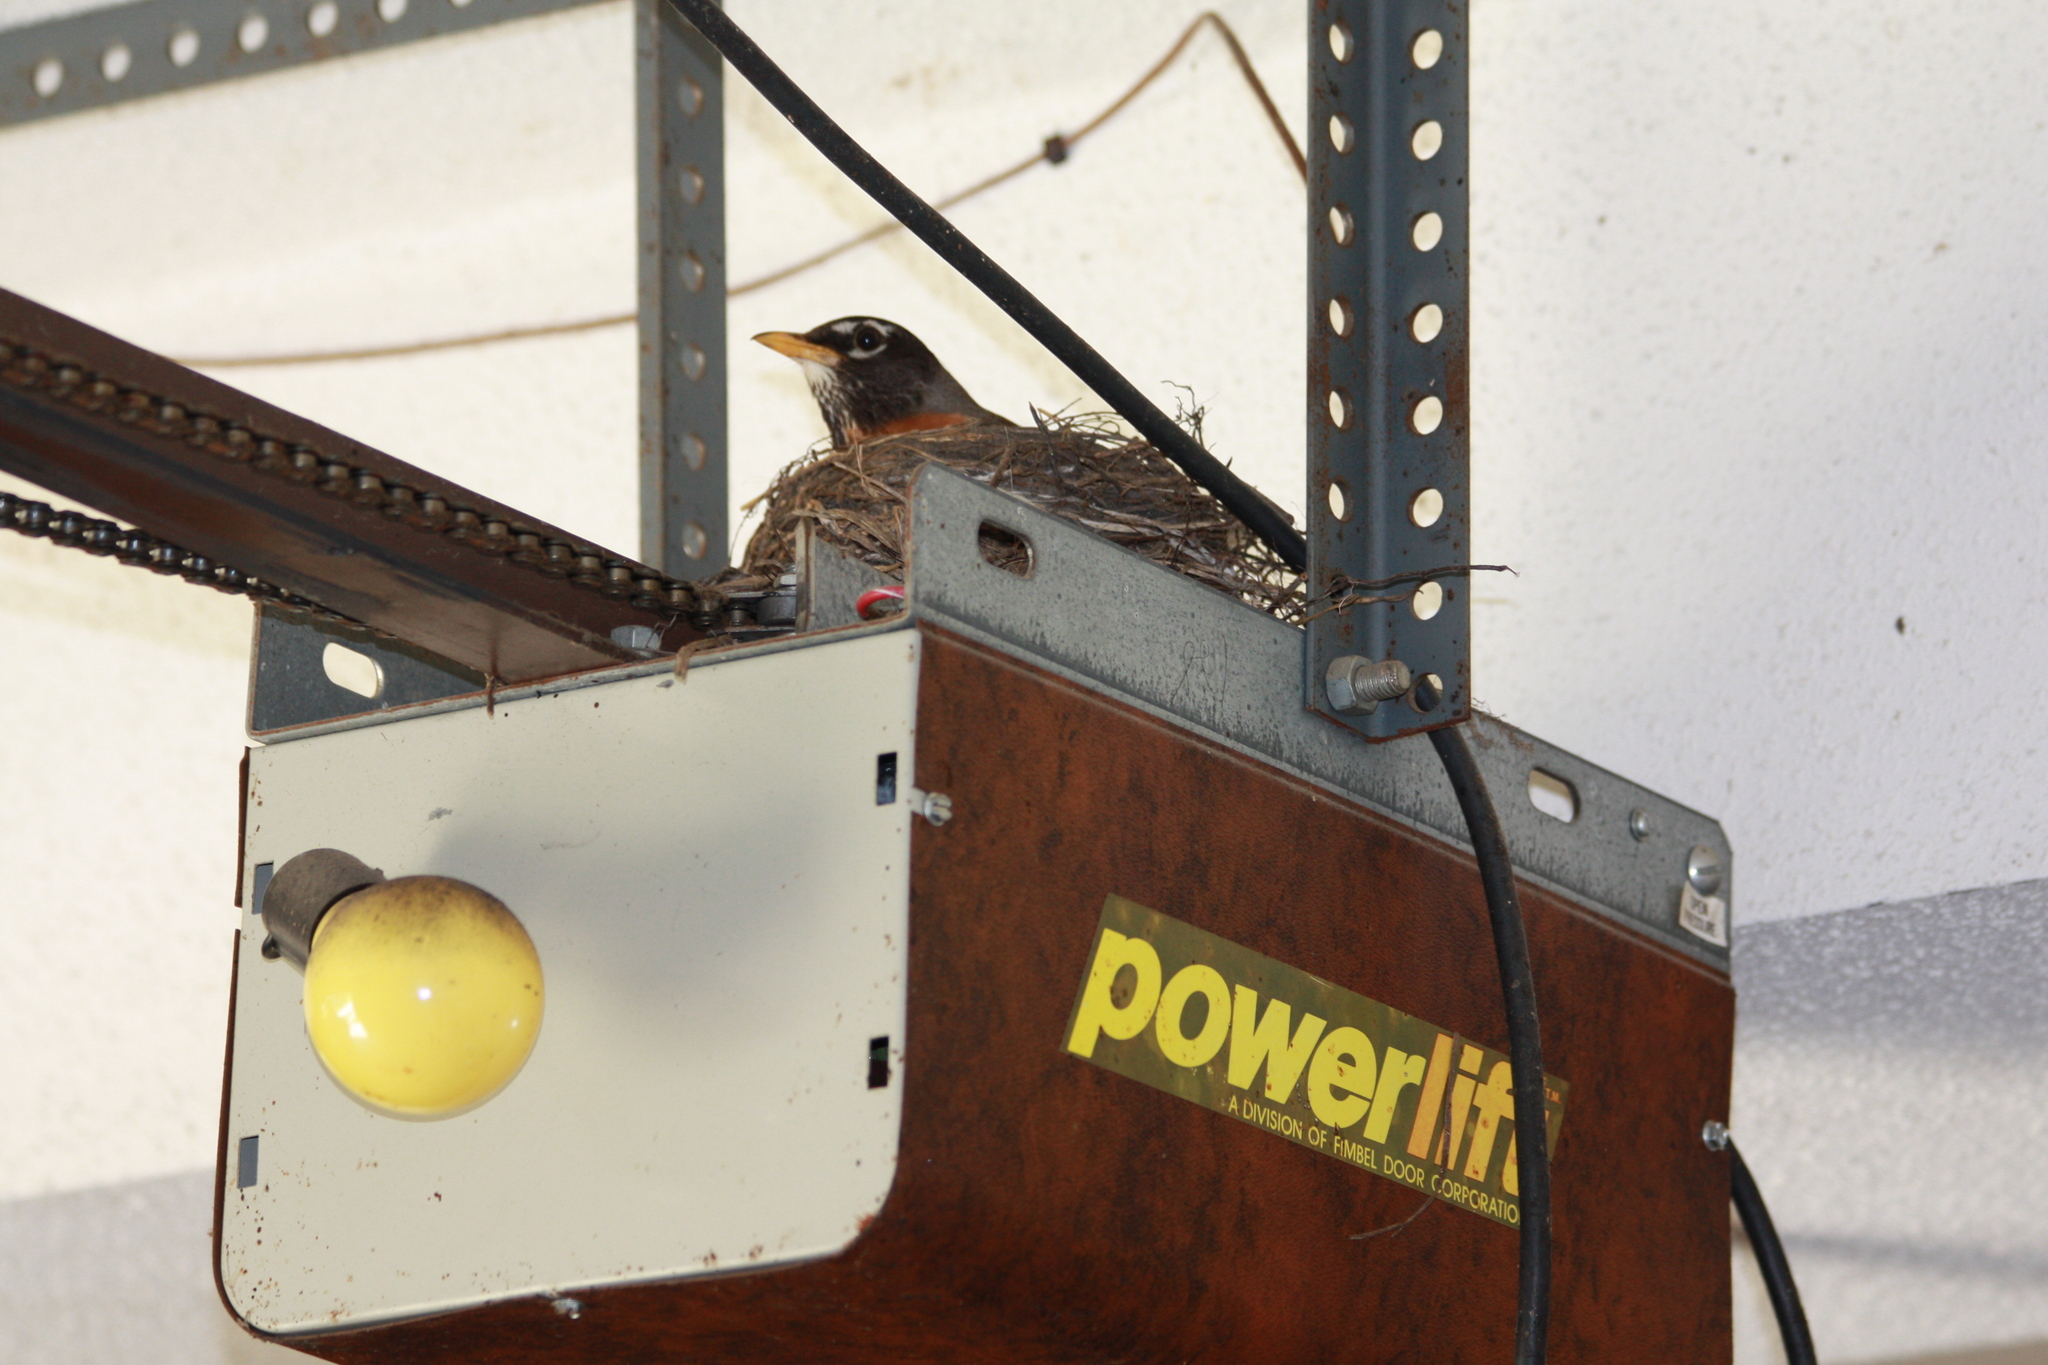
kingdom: Animalia
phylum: Chordata
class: Aves
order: Passeriformes
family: Turdidae
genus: Turdus
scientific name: Turdus migratorius
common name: American robin
